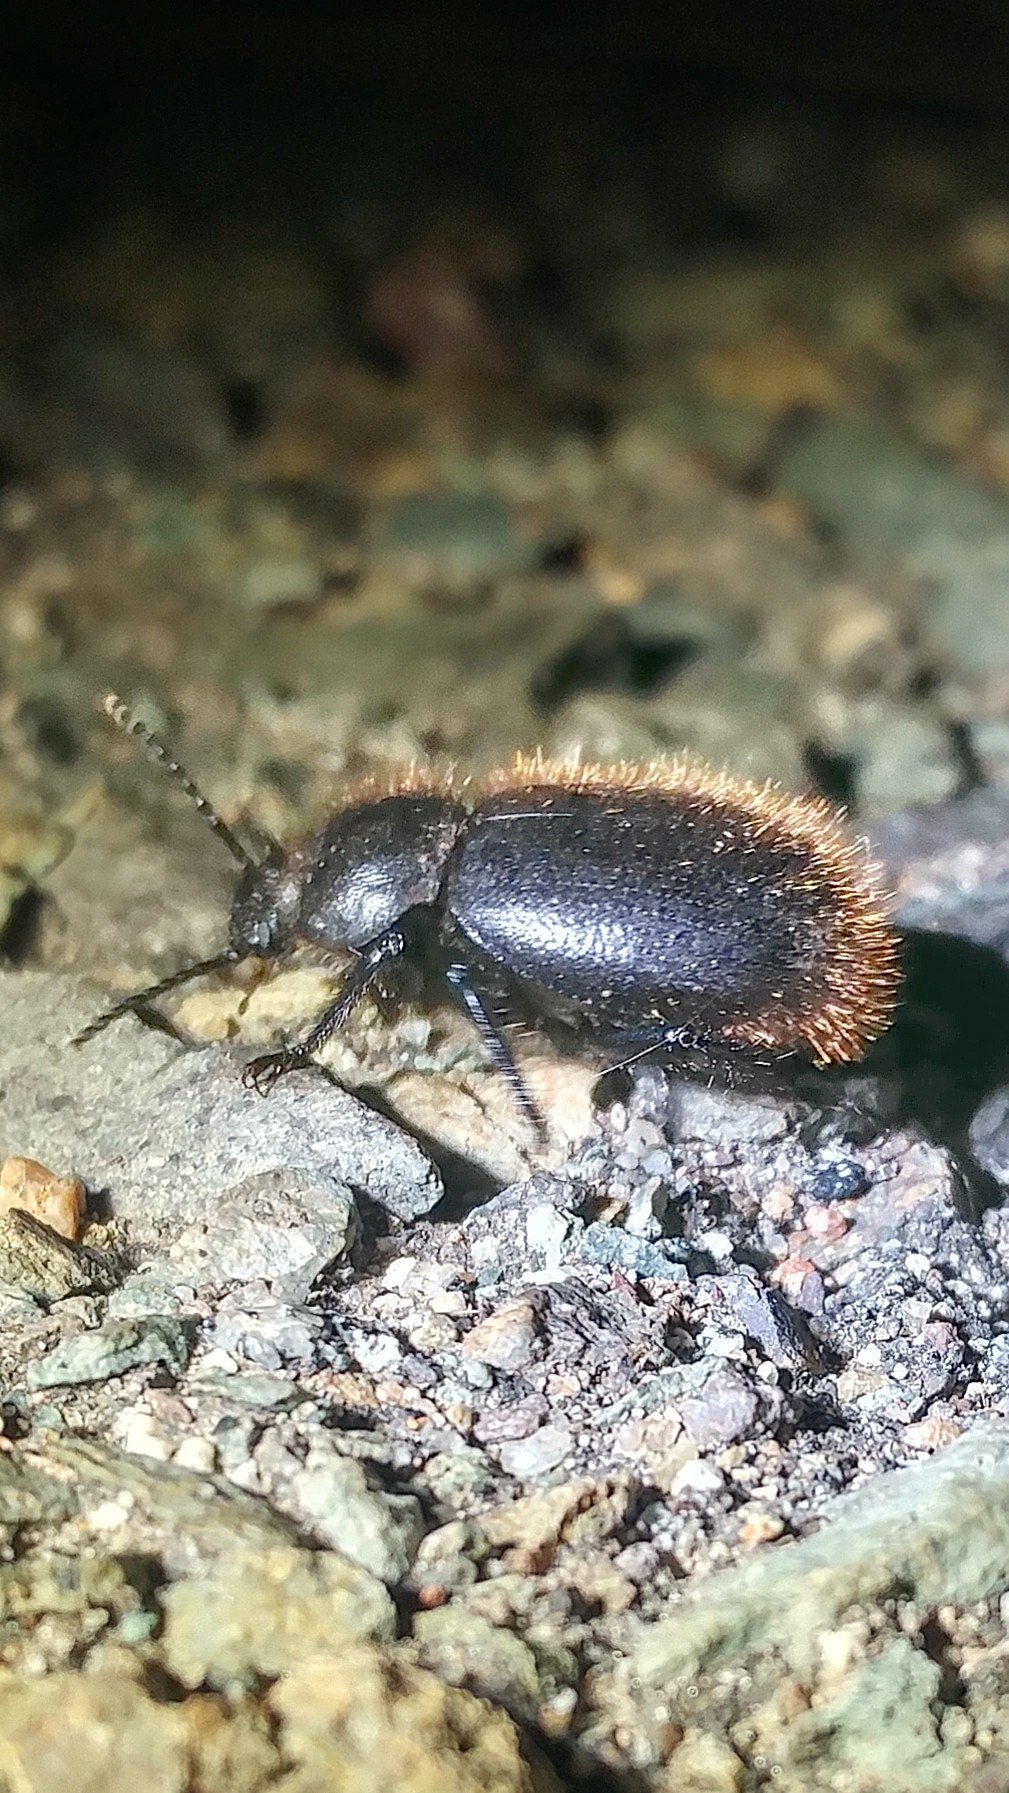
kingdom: Animalia
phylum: Arthropoda
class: Insecta
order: Coleoptera
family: Tenebrionidae
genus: Eleodes
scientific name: Eleodes osculans
